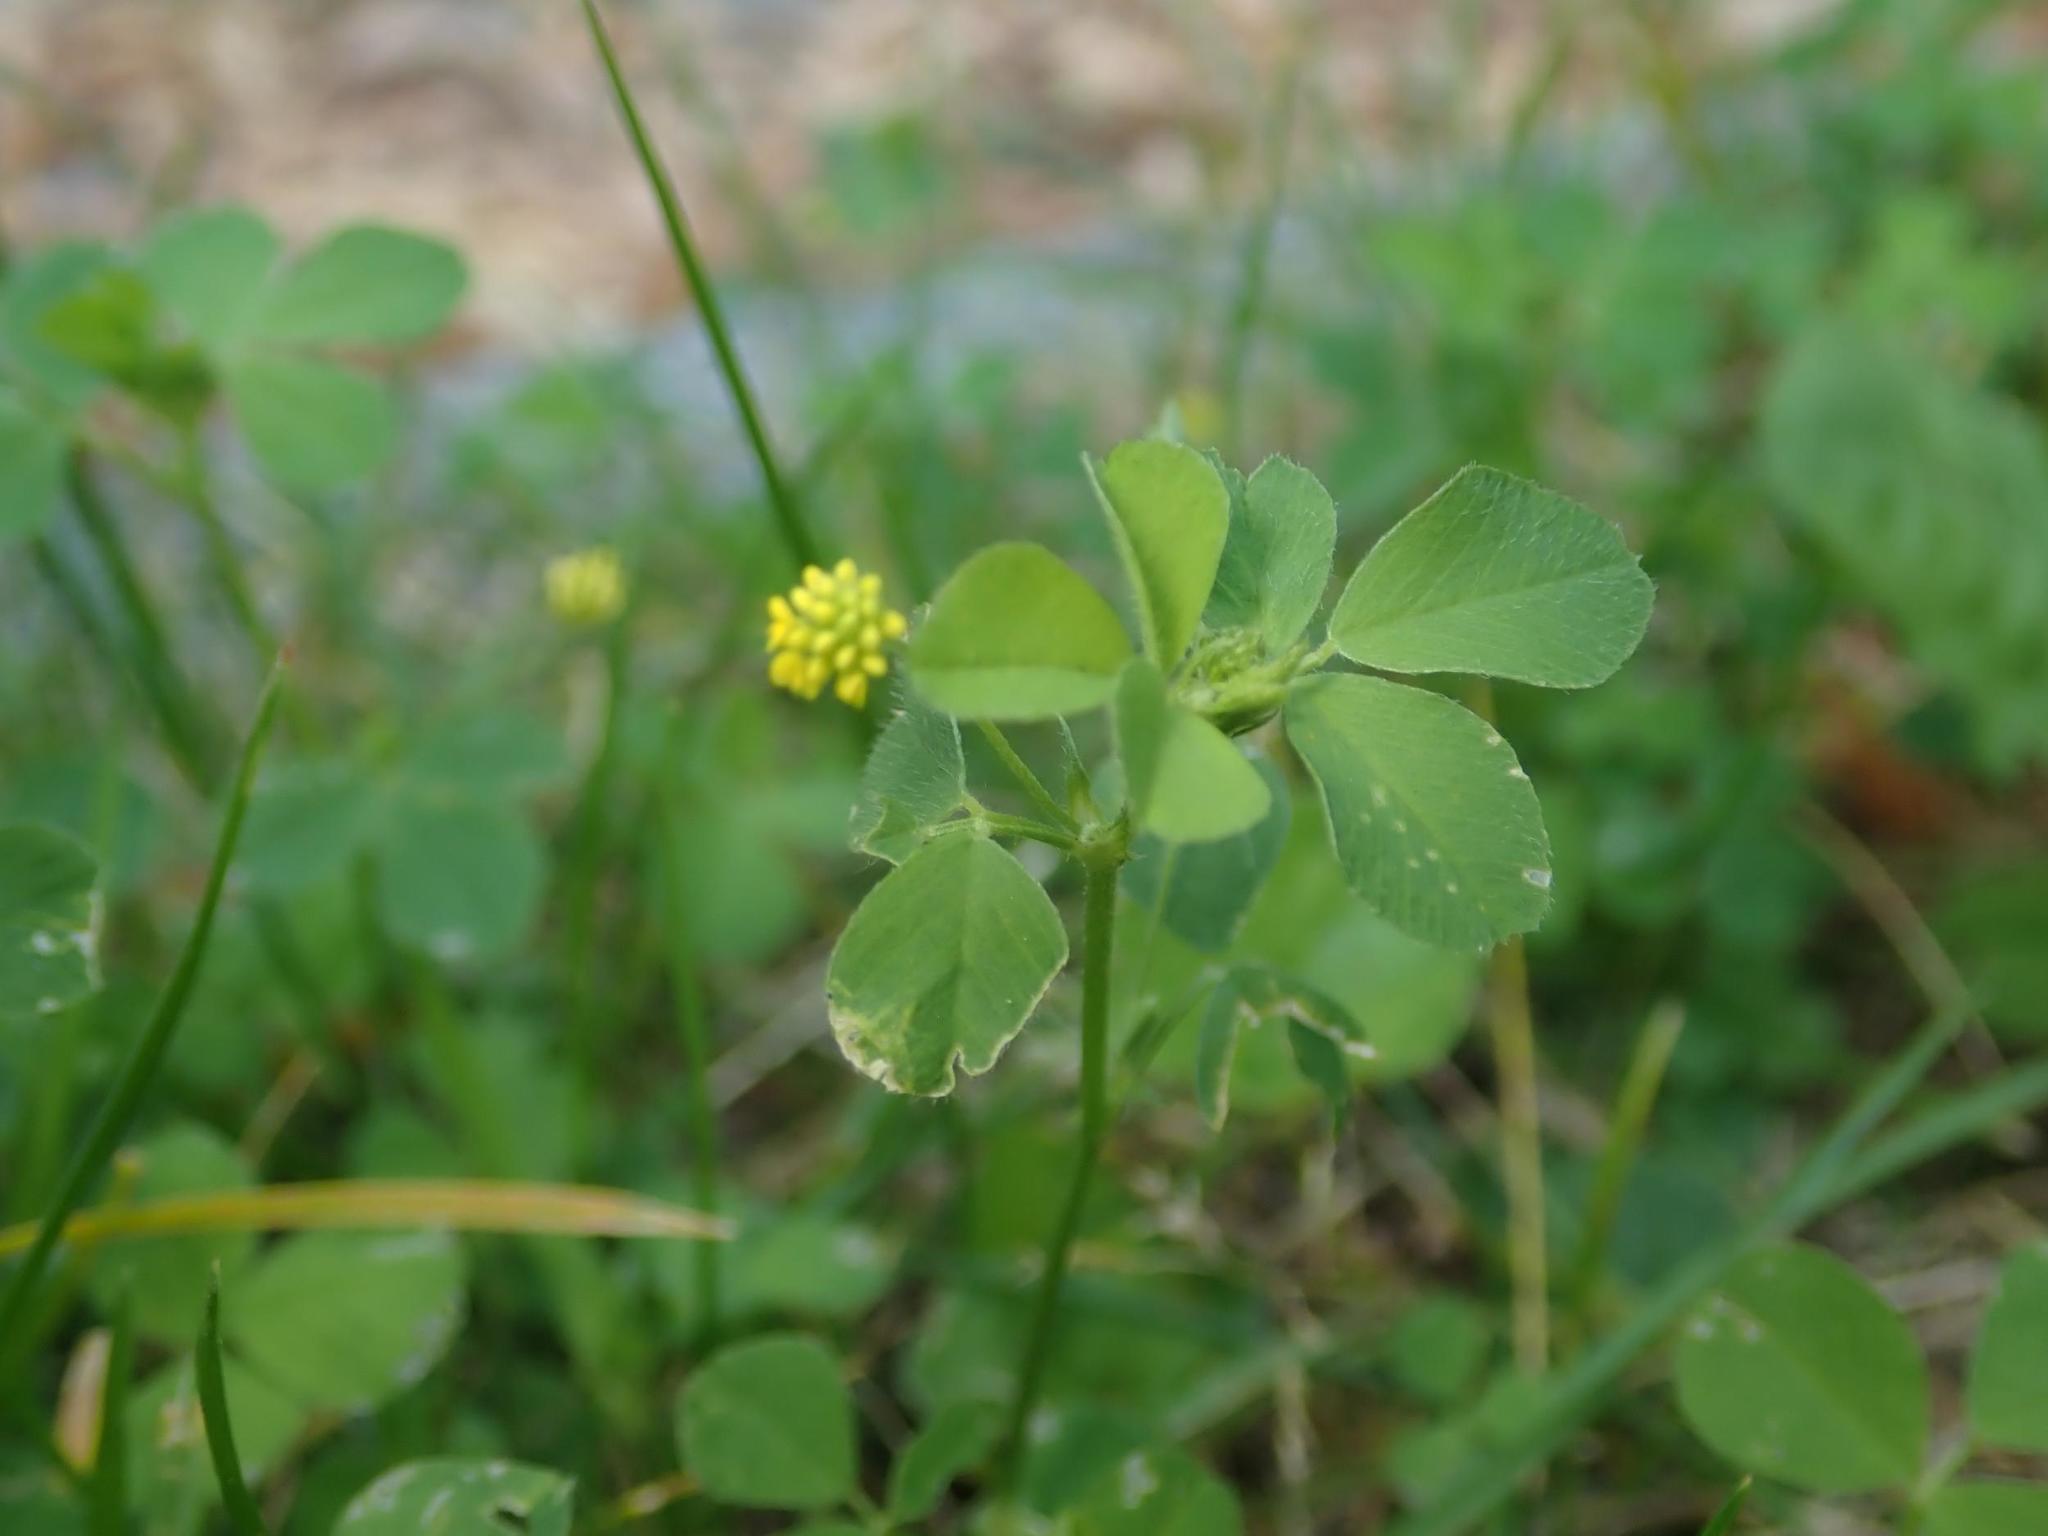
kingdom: Plantae
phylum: Tracheophyta
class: Magnoliopsida
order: Fabales
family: Fabaceae
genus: Medicago
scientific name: Medicago lupulina
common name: Black medick
